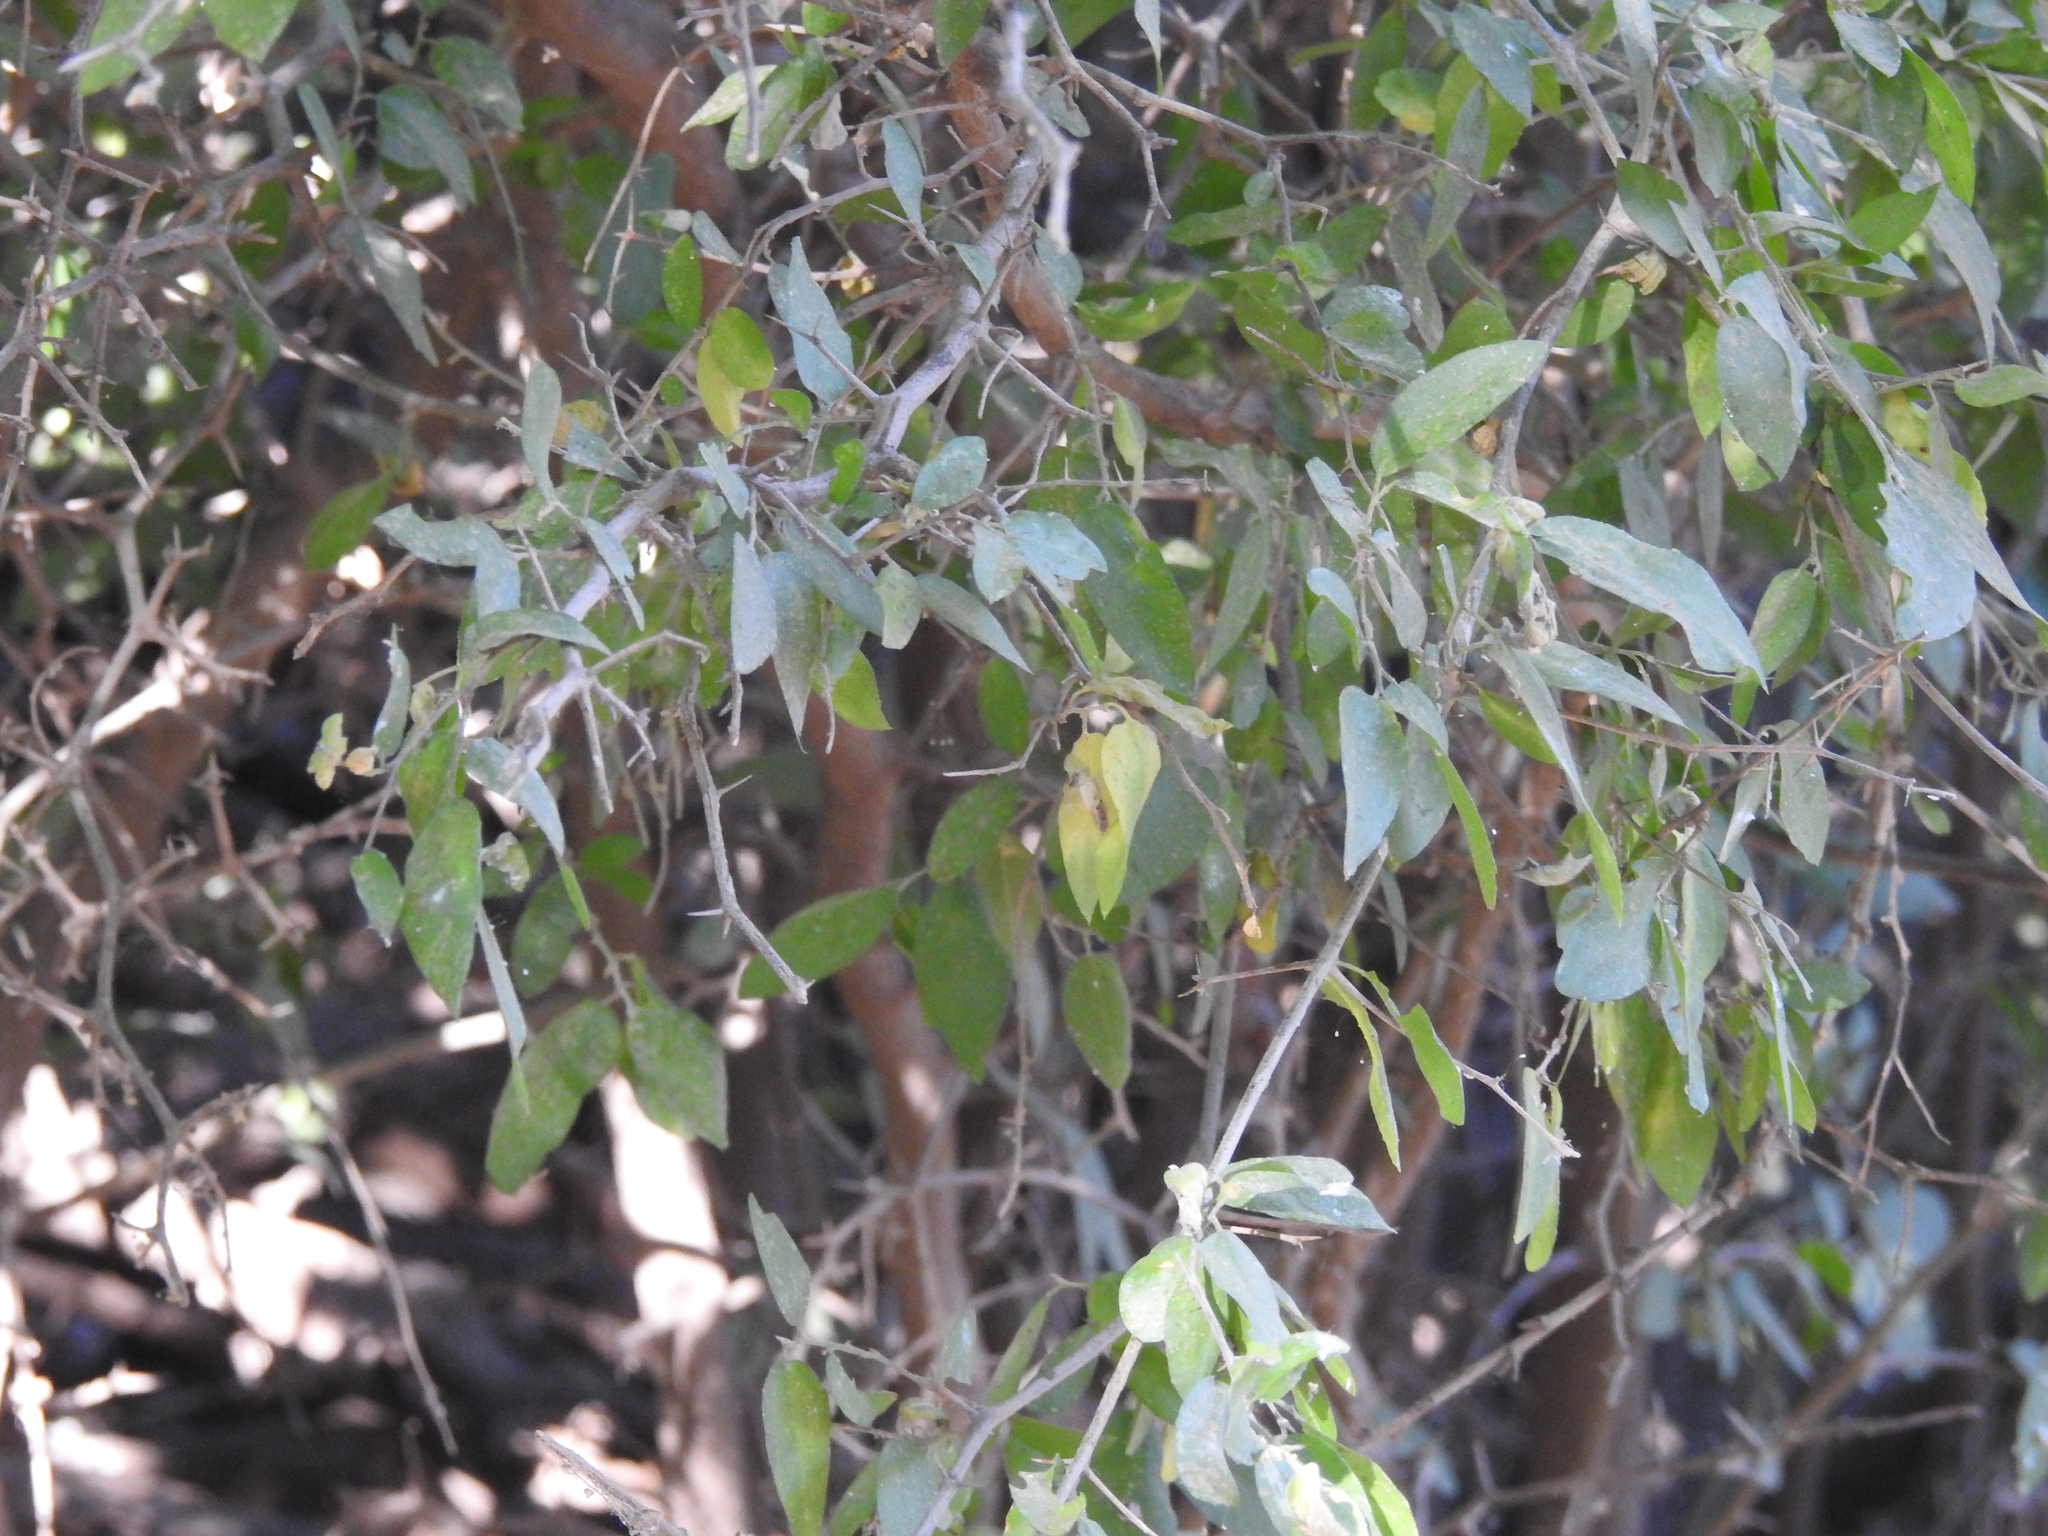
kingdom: Plantae
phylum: Tracheophyta
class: Magnoliopsida
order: Rosales
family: Cannabaceae
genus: Celtis
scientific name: Celtis pallida
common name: Desert hackberry
